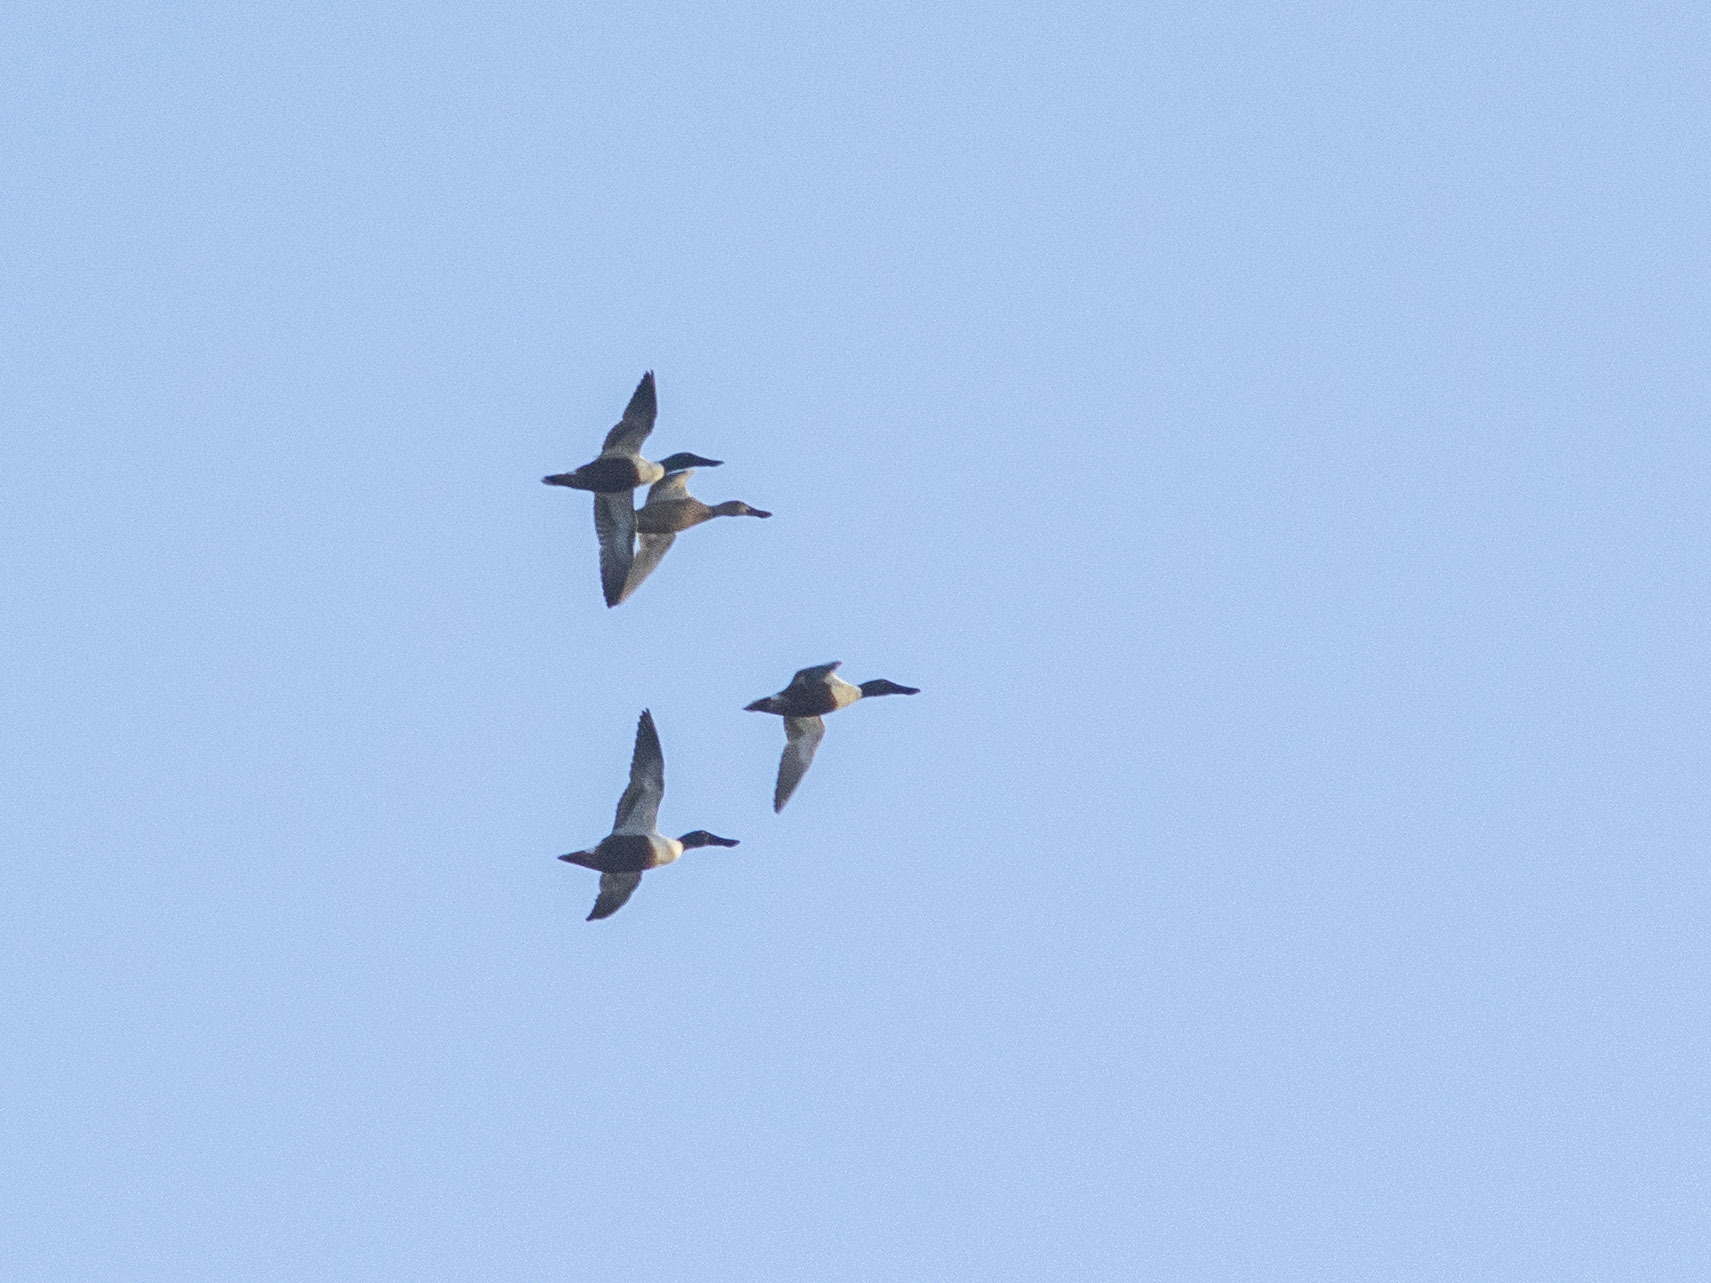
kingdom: Animalia
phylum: Chordata
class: Aves
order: Anseriformes
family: Anatidae
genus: Spatula
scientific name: Spatula clypeata
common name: Northern shoveler
